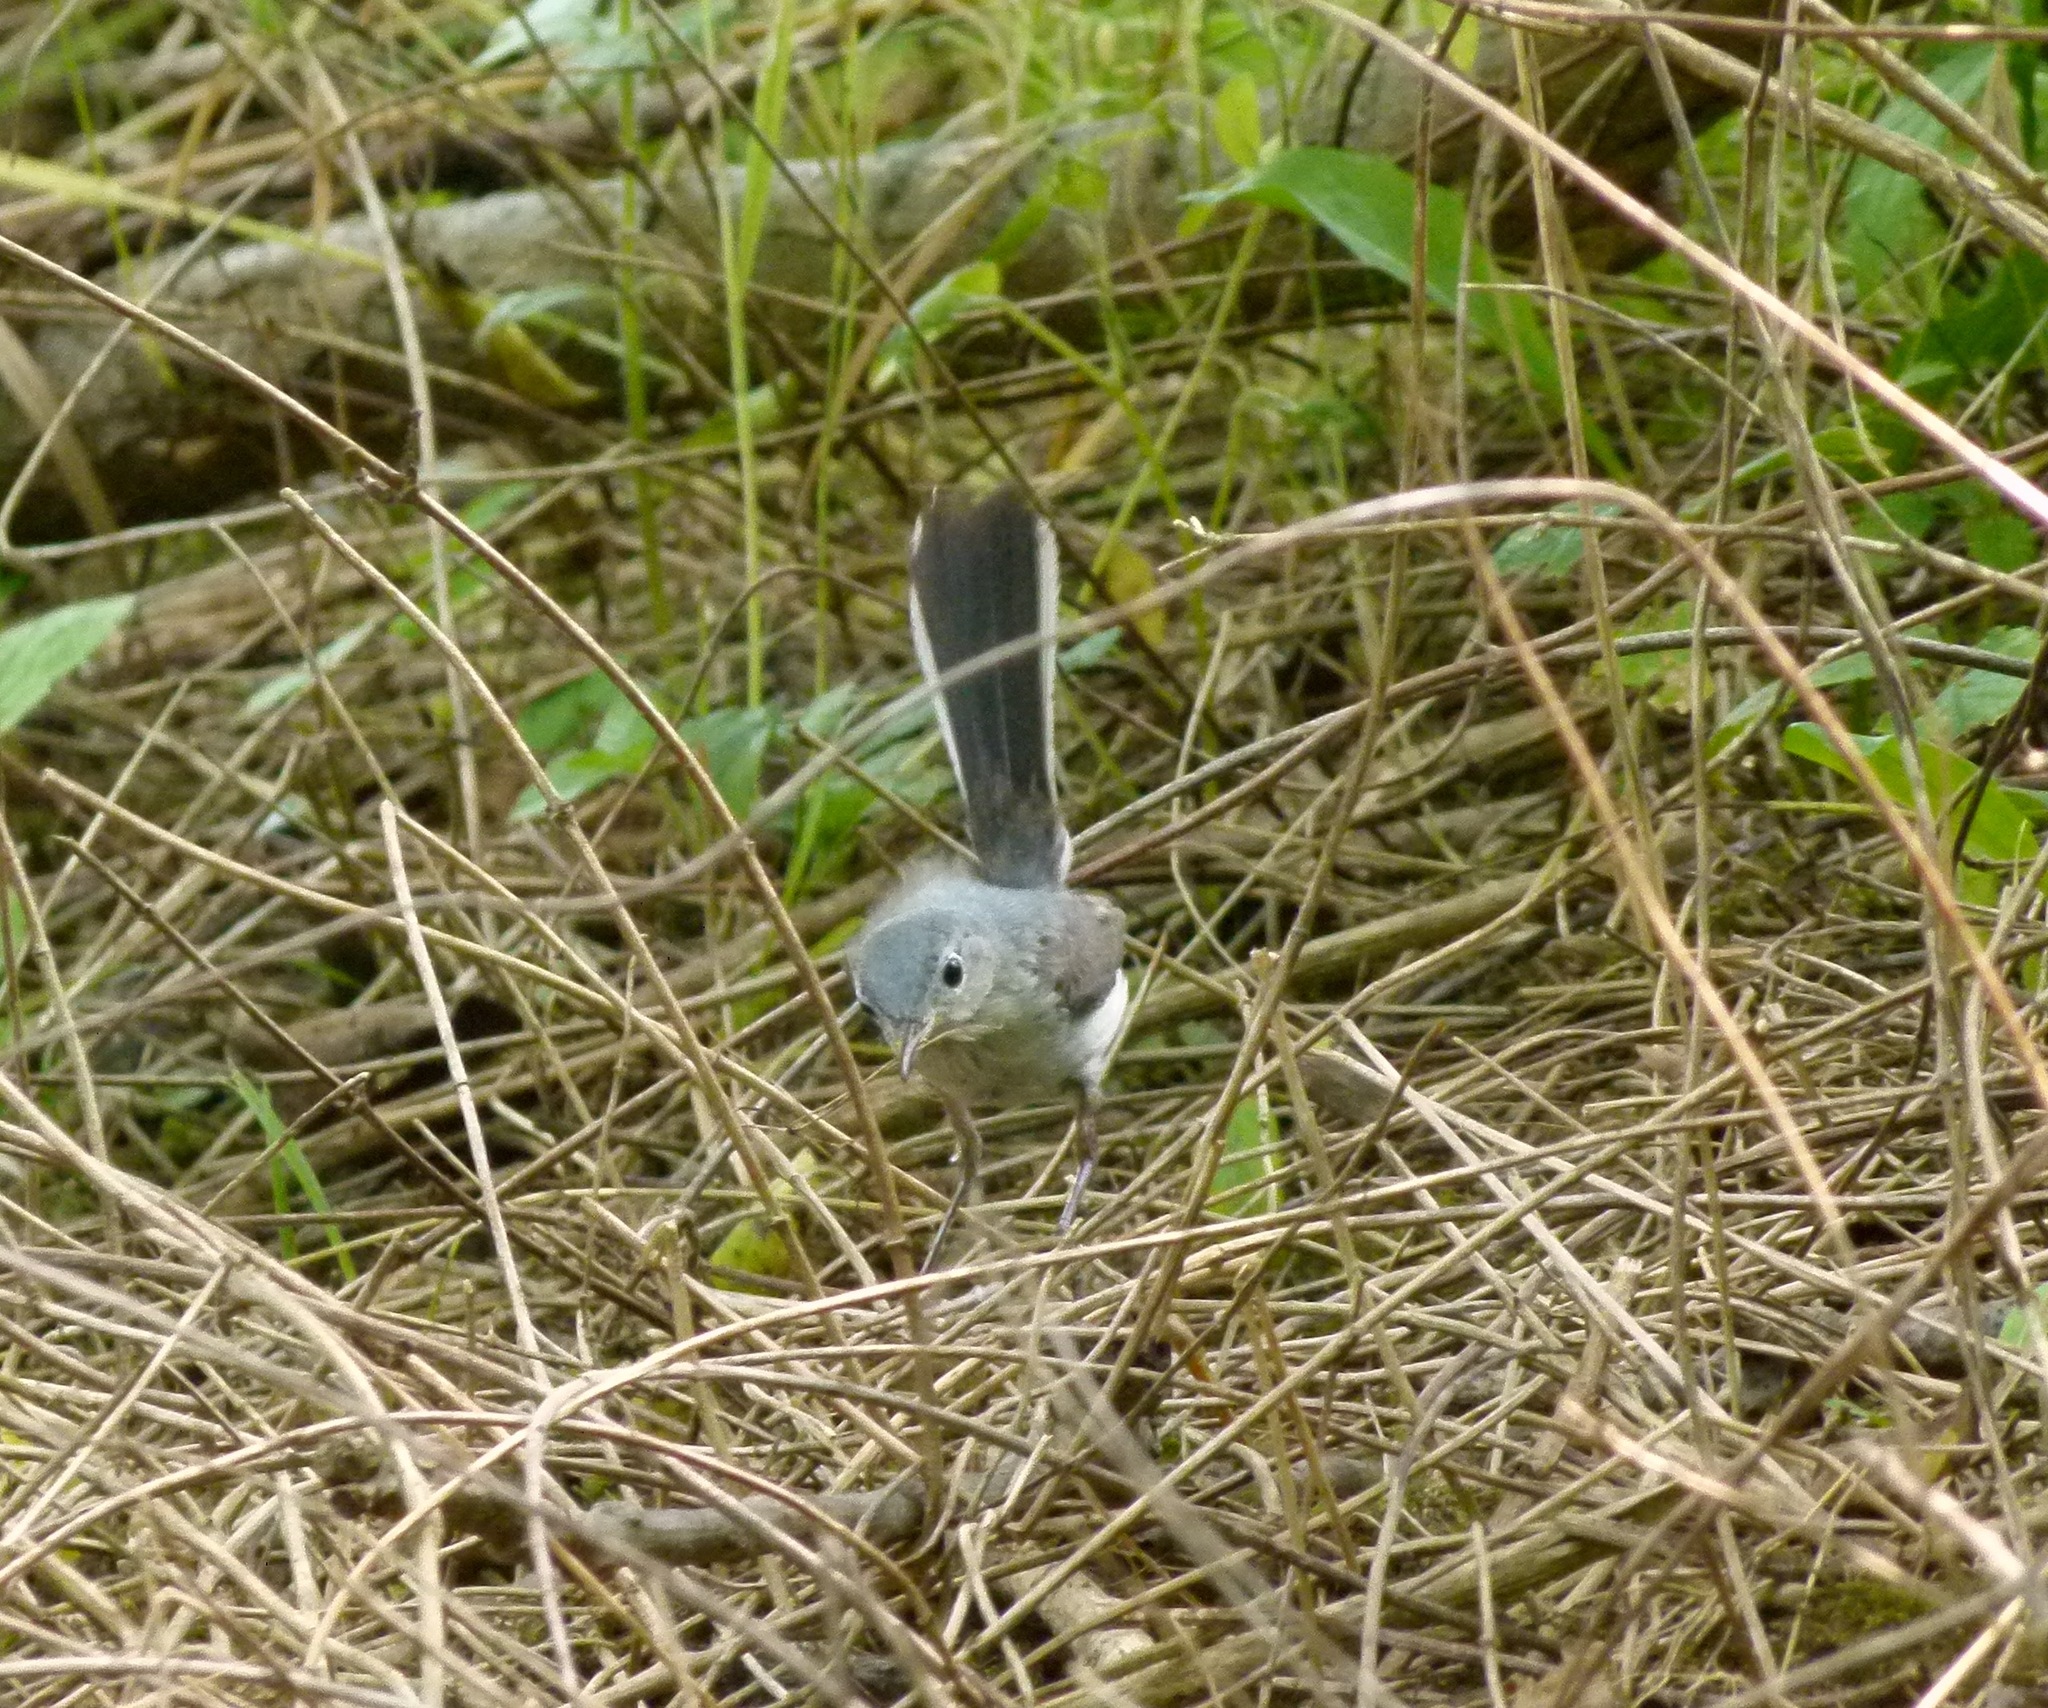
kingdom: Animalia
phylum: Chordata
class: Aves
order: Passeriformes
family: Polioptilidae
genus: Polioptila
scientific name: Polioptila caerulea
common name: Blue-gray gnatcatcher
